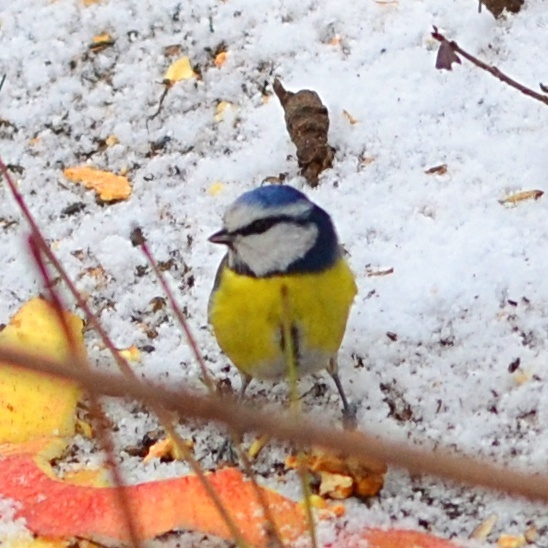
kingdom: Animalia
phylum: Chordata
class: Aves
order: Passeriformes
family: Paridae
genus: Cyanistes
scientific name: Cyanistes caeruleus
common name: Eurasian blue tit
